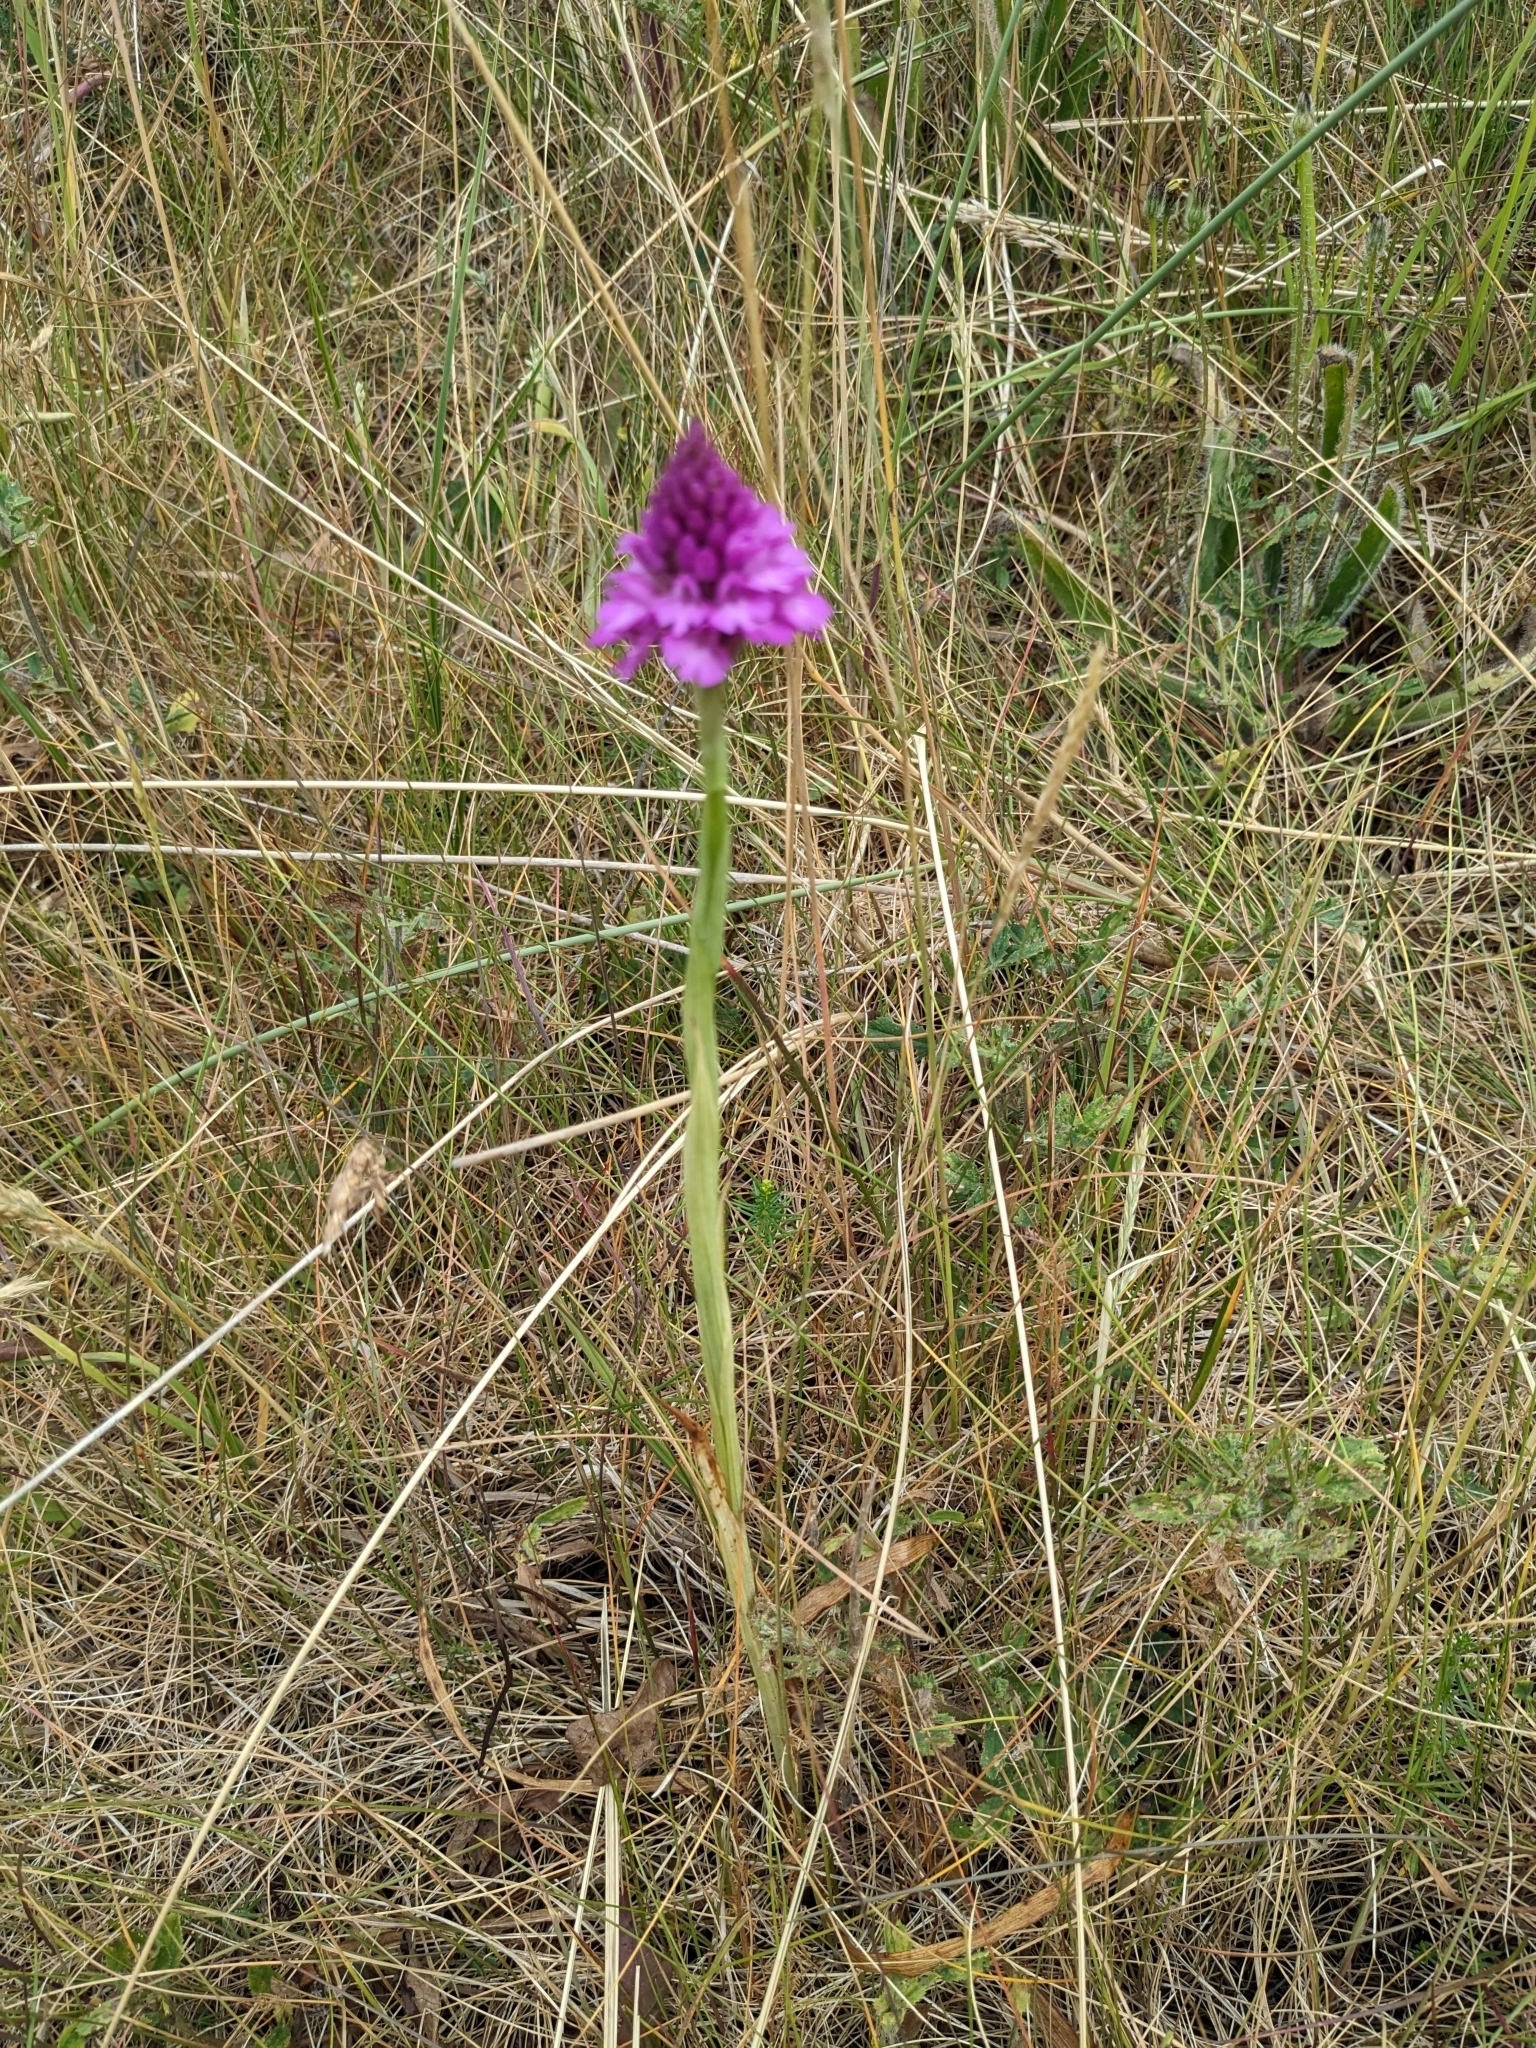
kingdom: Plantae
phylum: Tracheophyta
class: Liliopsida
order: Asparagales
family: Orchidaceae
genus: Anacamptis
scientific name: Anacamptis pyramidalis
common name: Pyramidal orchid
